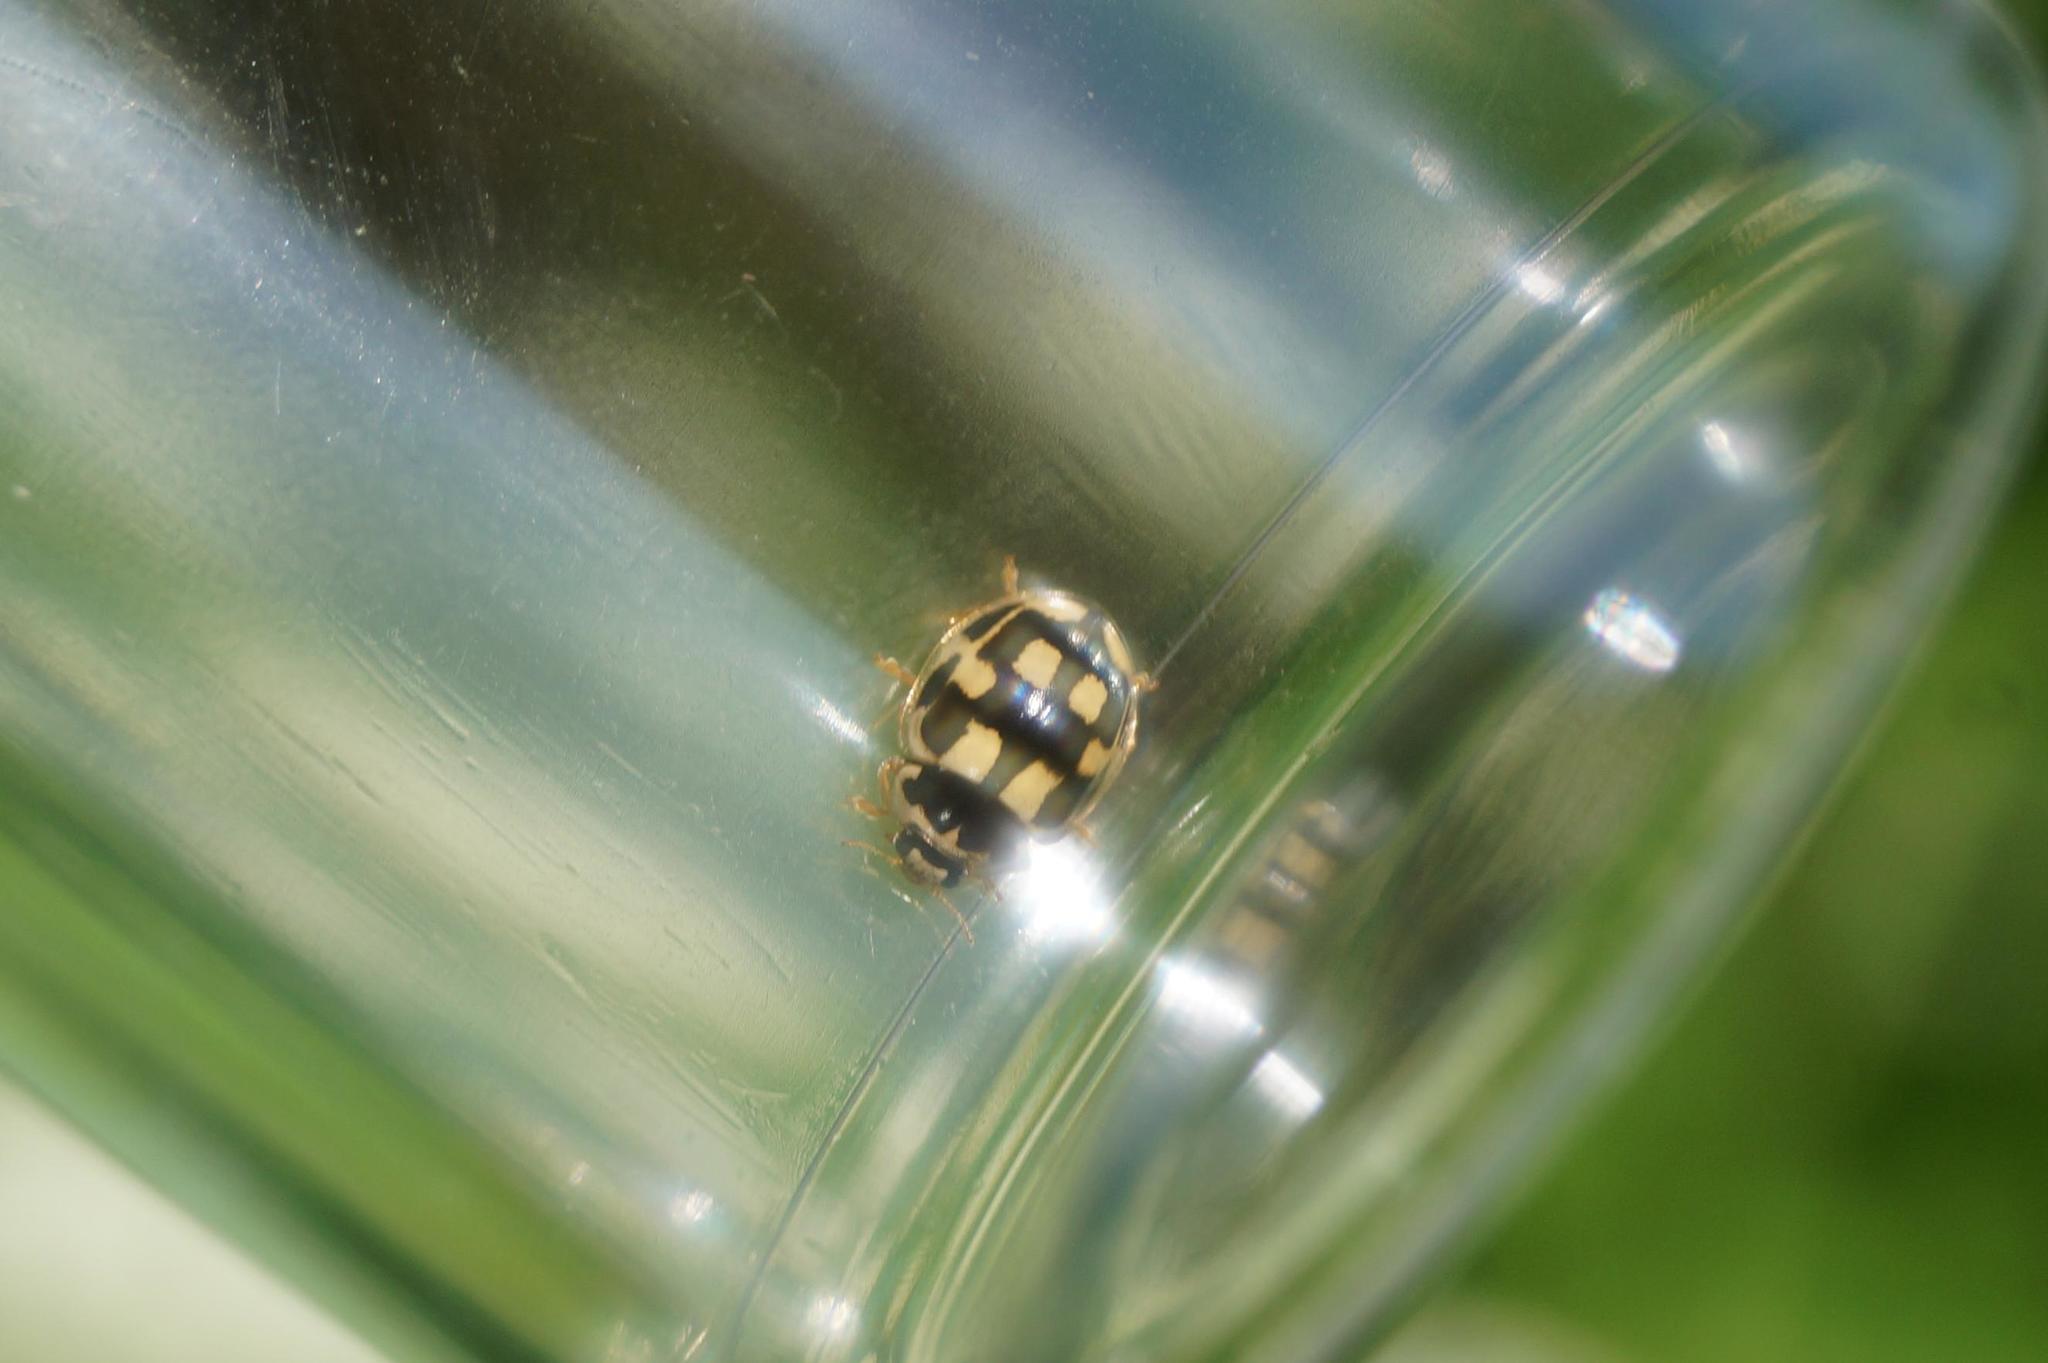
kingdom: Animalia
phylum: Arthropoda
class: Insecta
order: Coleoptera
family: Coccinellidae
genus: Propylaea
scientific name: Propylaea quatuordecimpunctata
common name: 14-spotted ladybird beetle
